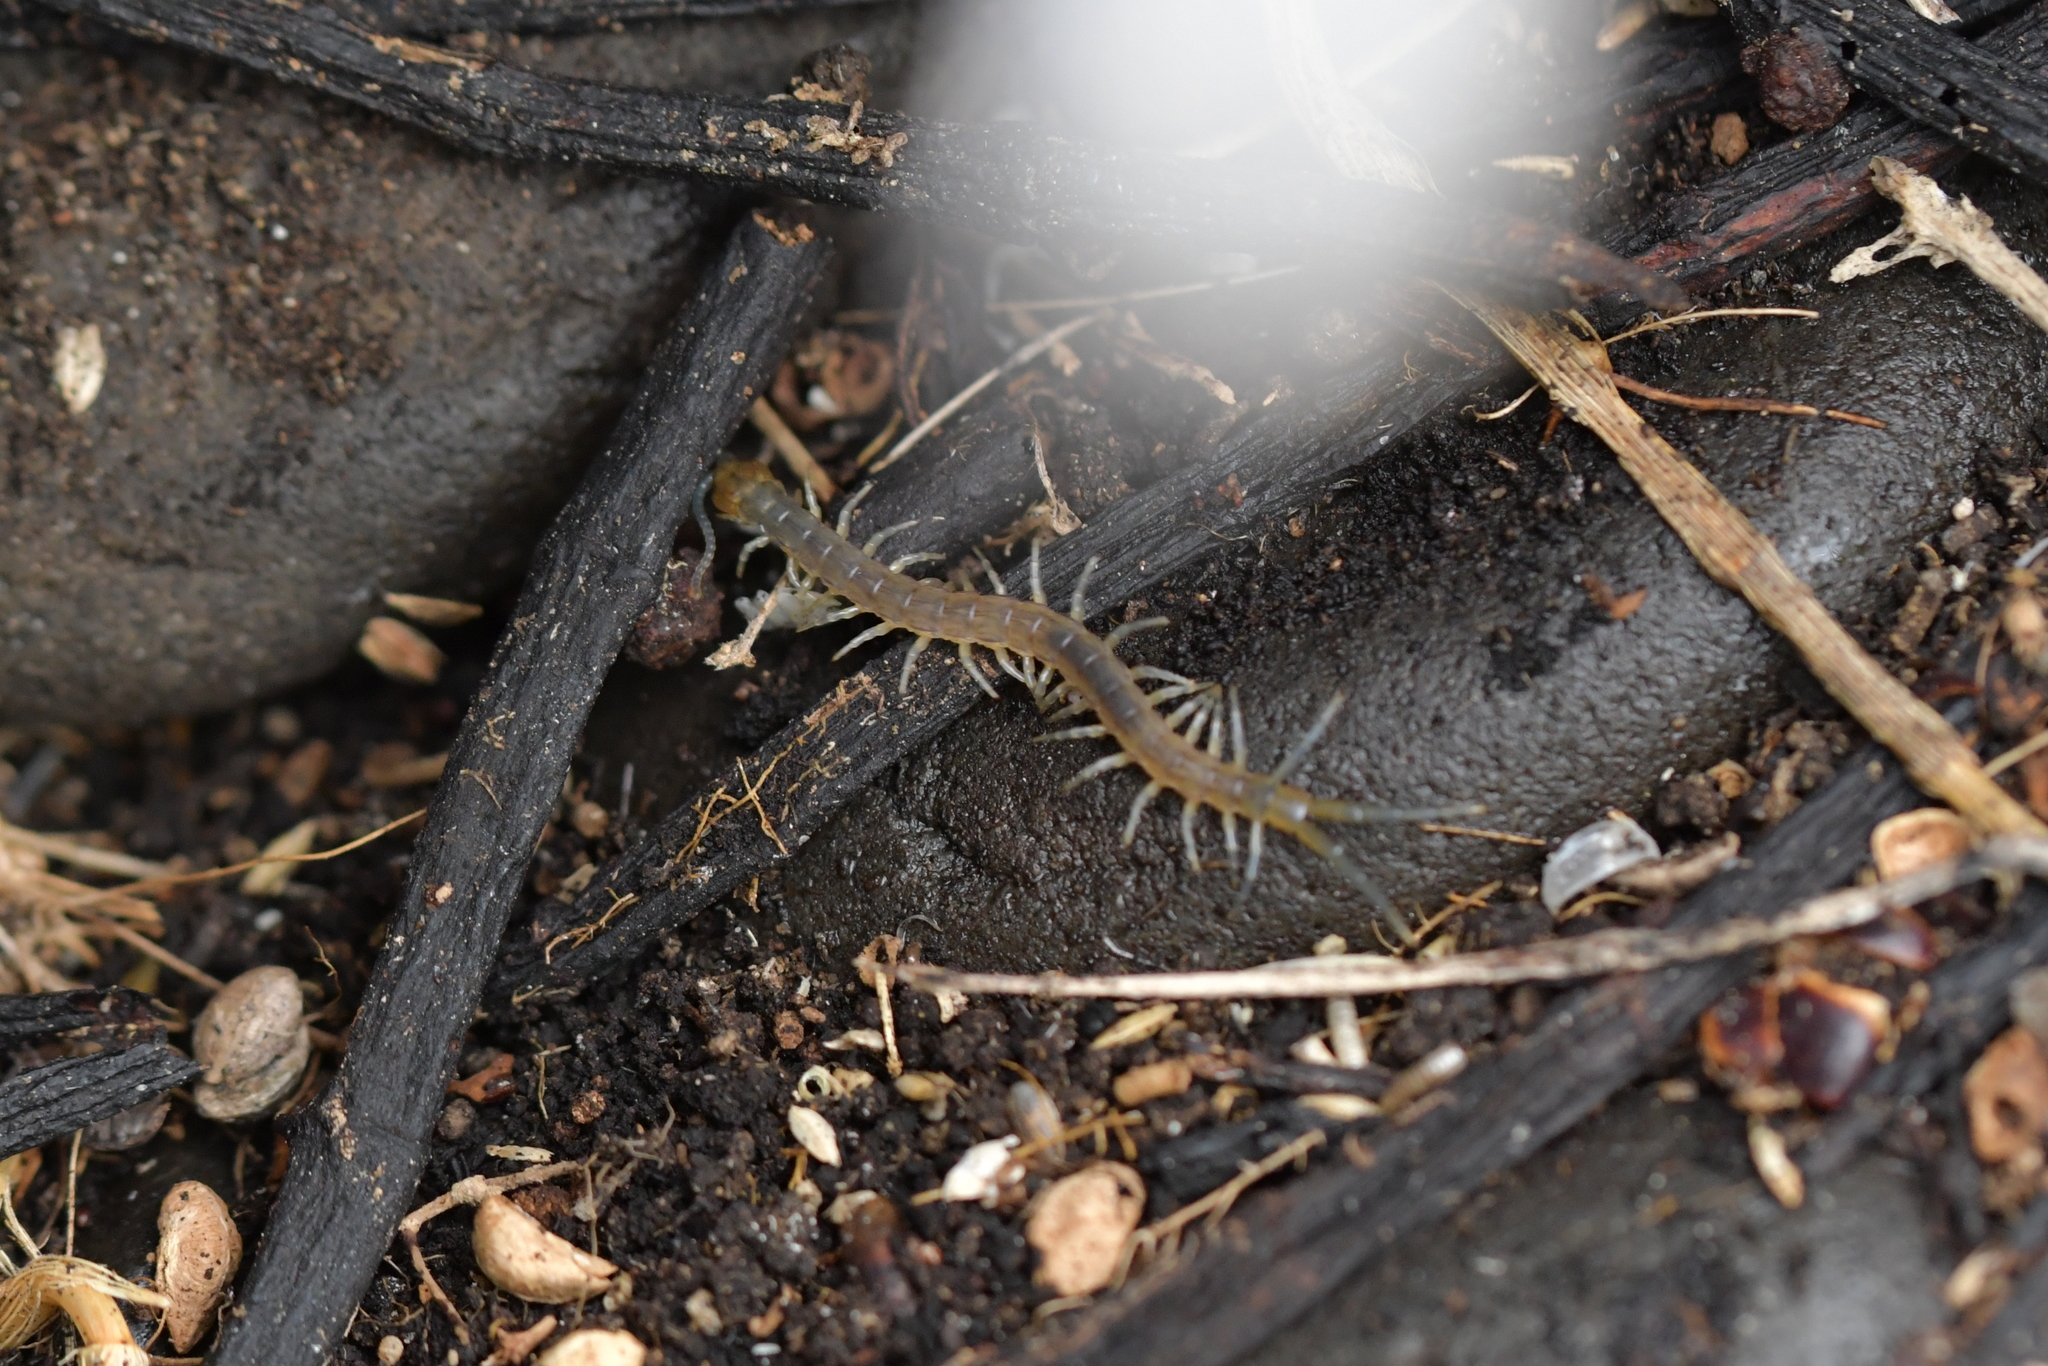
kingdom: Animalia
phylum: Arthropoda
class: Chilopoda
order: Scolopendromorpha
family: Scolopendridae
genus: Cormocephalus
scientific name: Cormocephalus rubriceps
